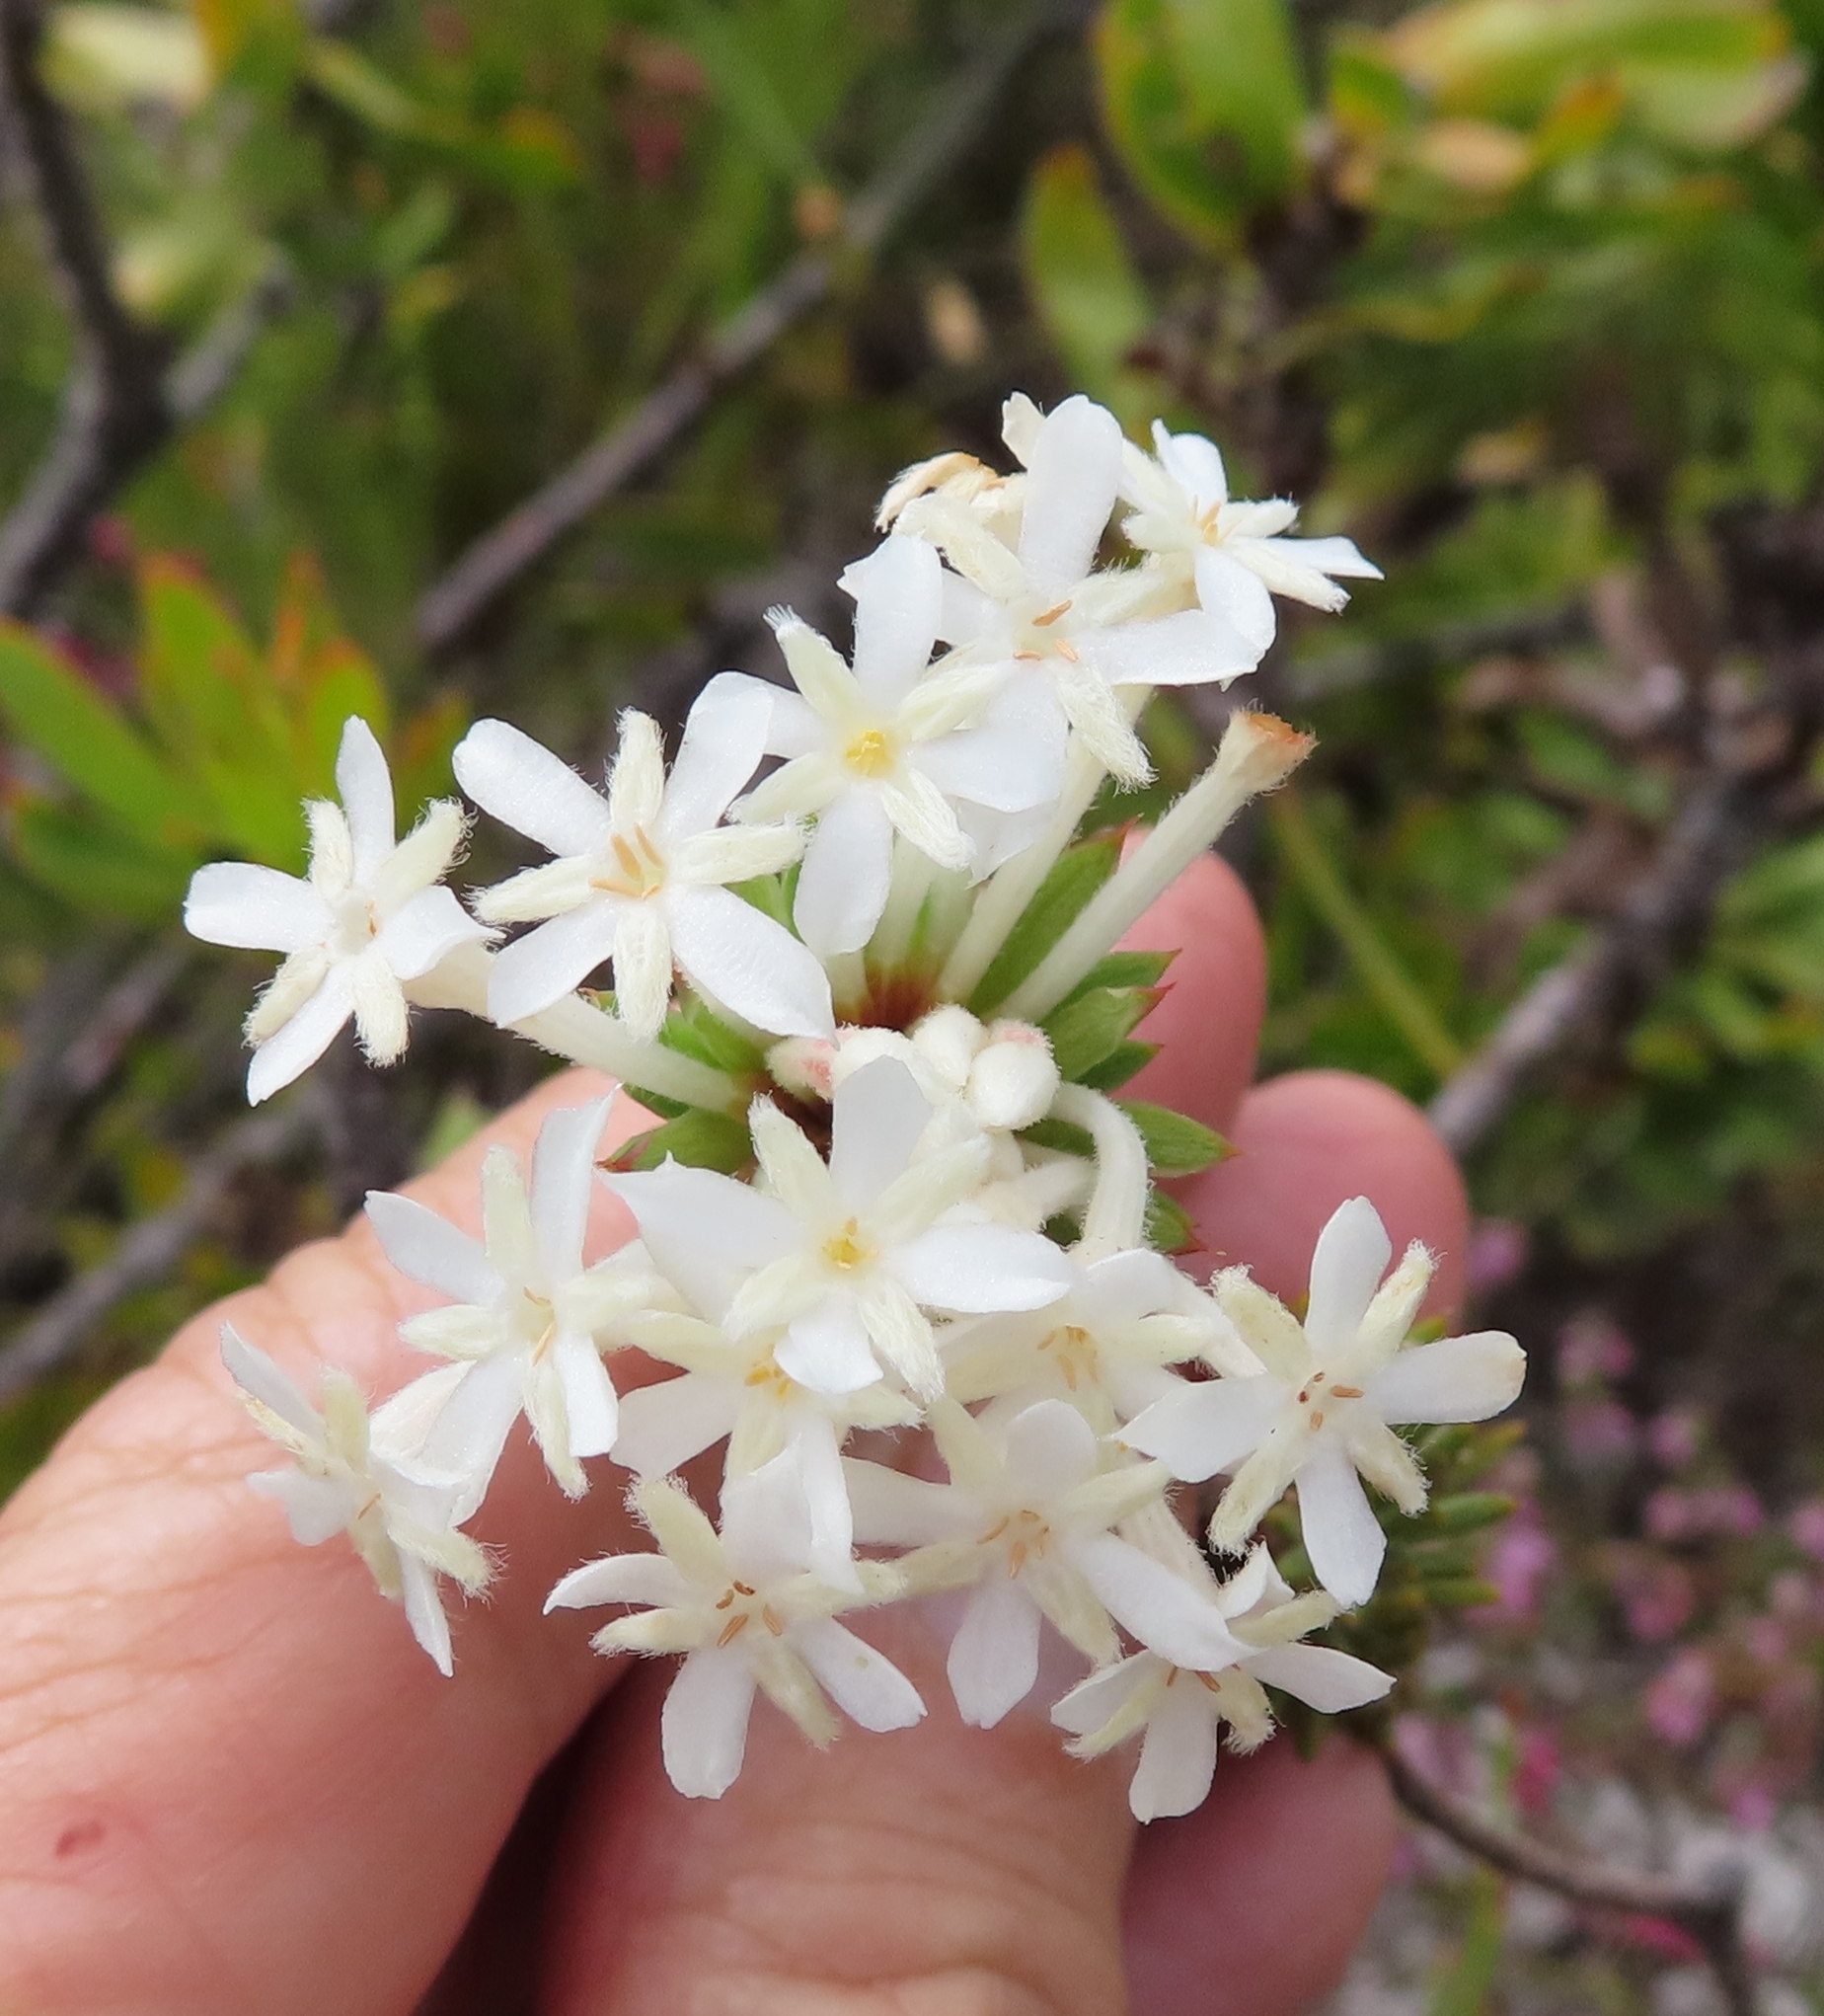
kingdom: Plantae
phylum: Tracheophyta
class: Magnoliopsida
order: Malvales
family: Thymelaeaceae
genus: Gnidia
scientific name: Gnidia pinifolia
